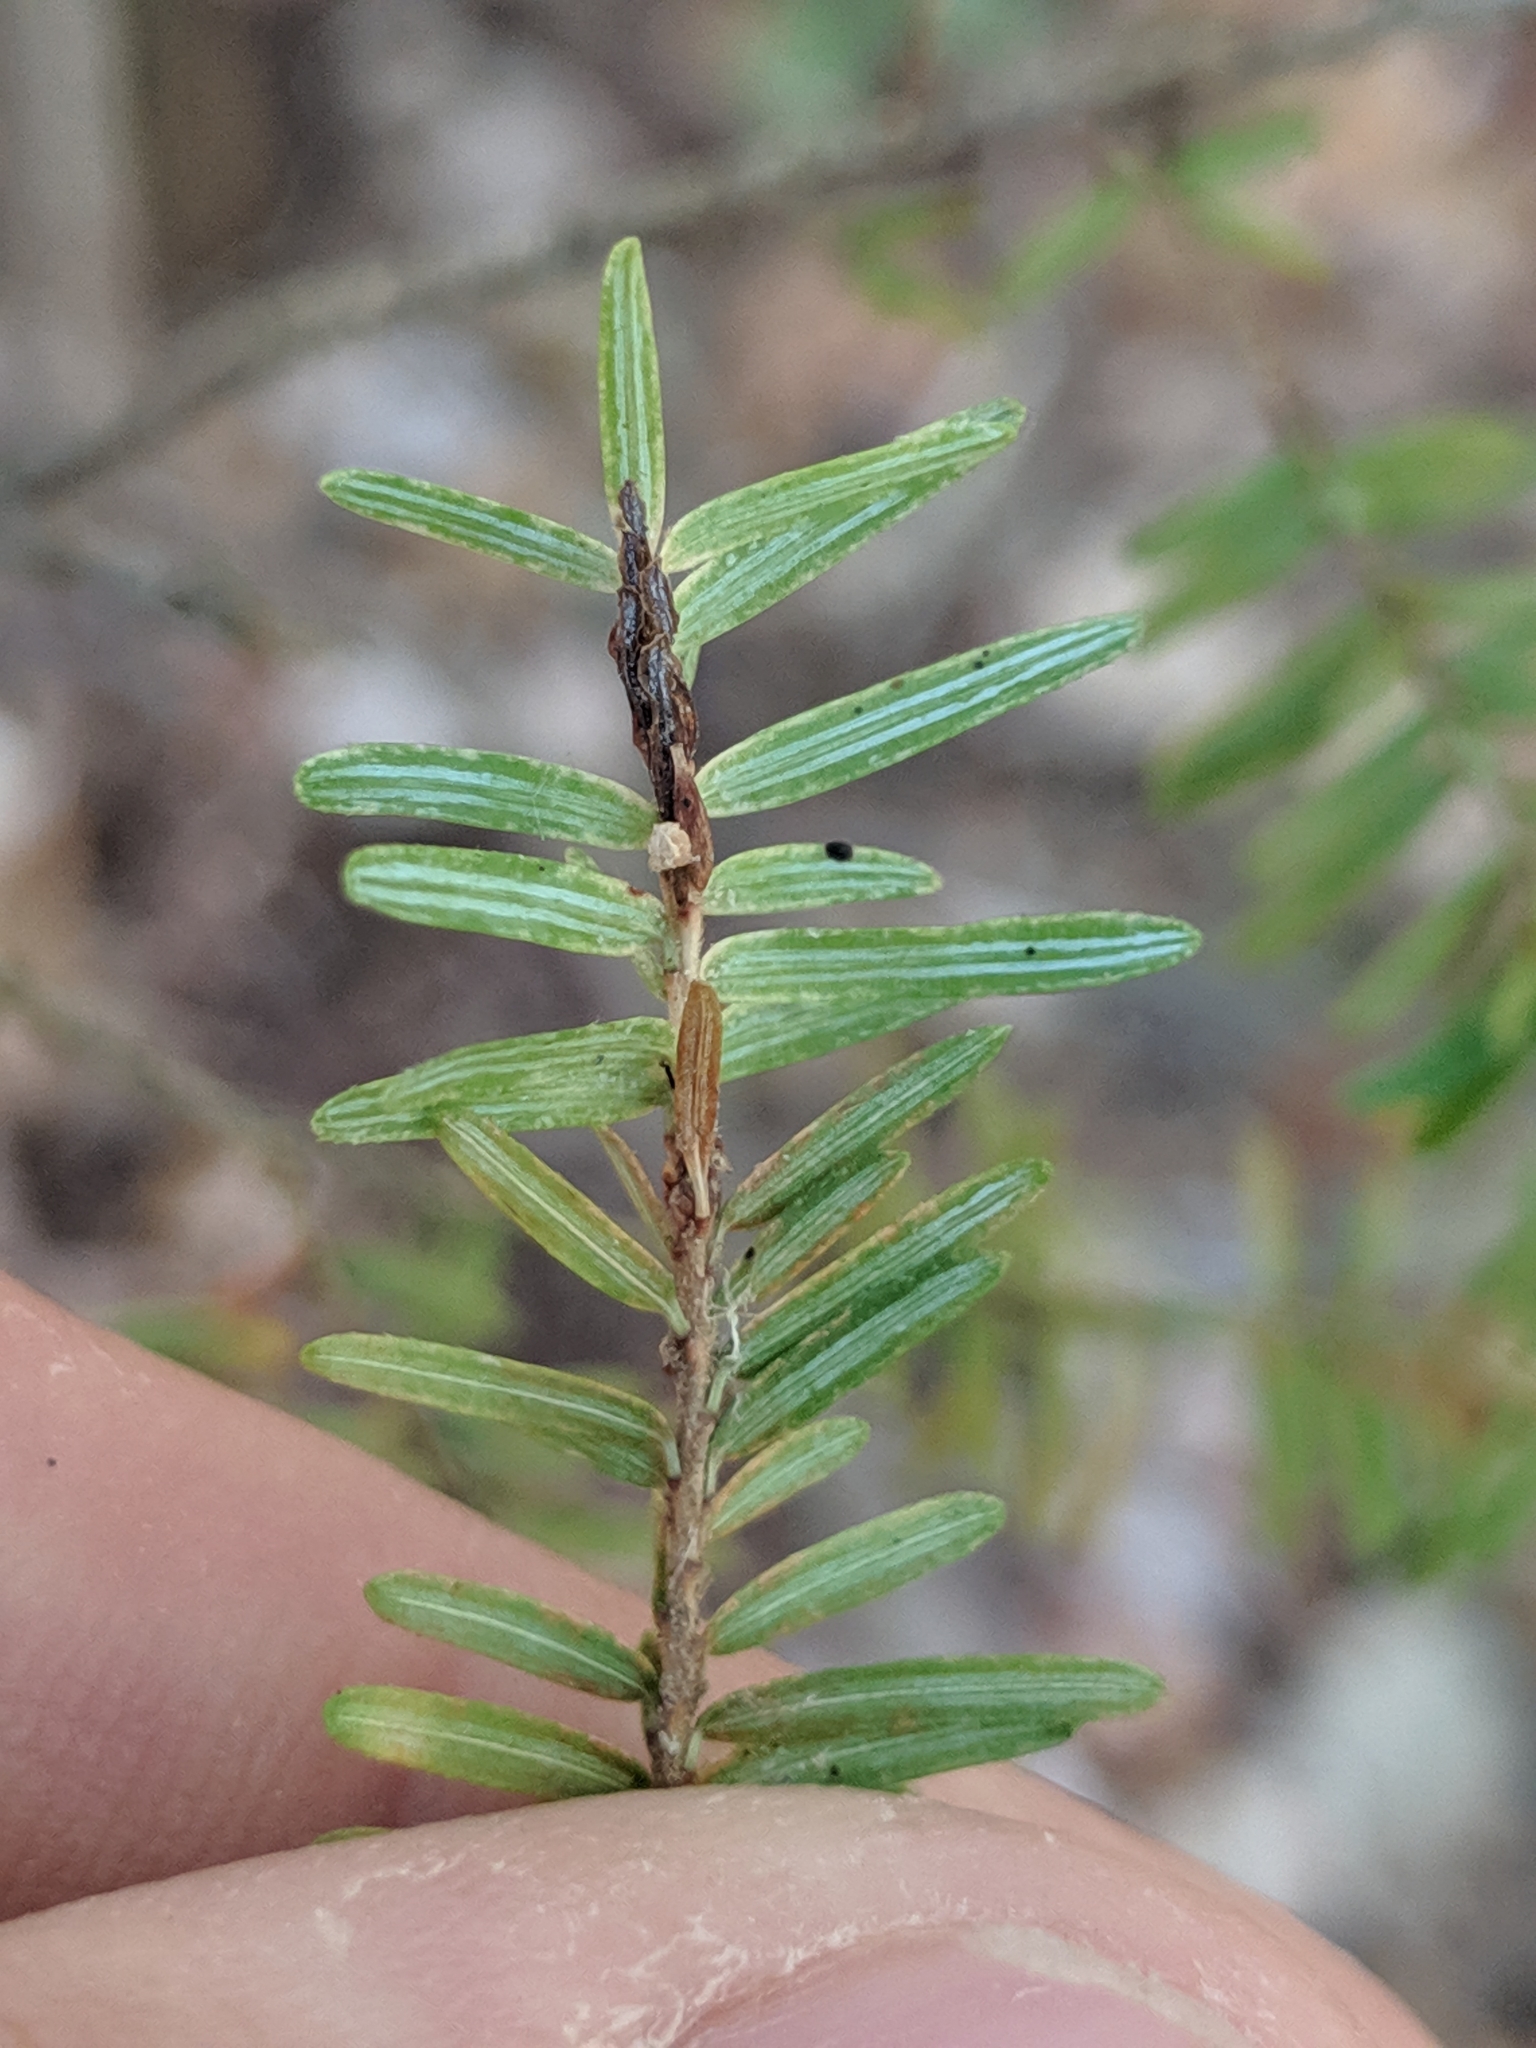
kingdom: Plantae
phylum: Tracheophyta
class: Pinopsida
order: Pinales
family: Pinaceae
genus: Tsuga
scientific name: Tsuga canadensis
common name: Eastern hemlock
